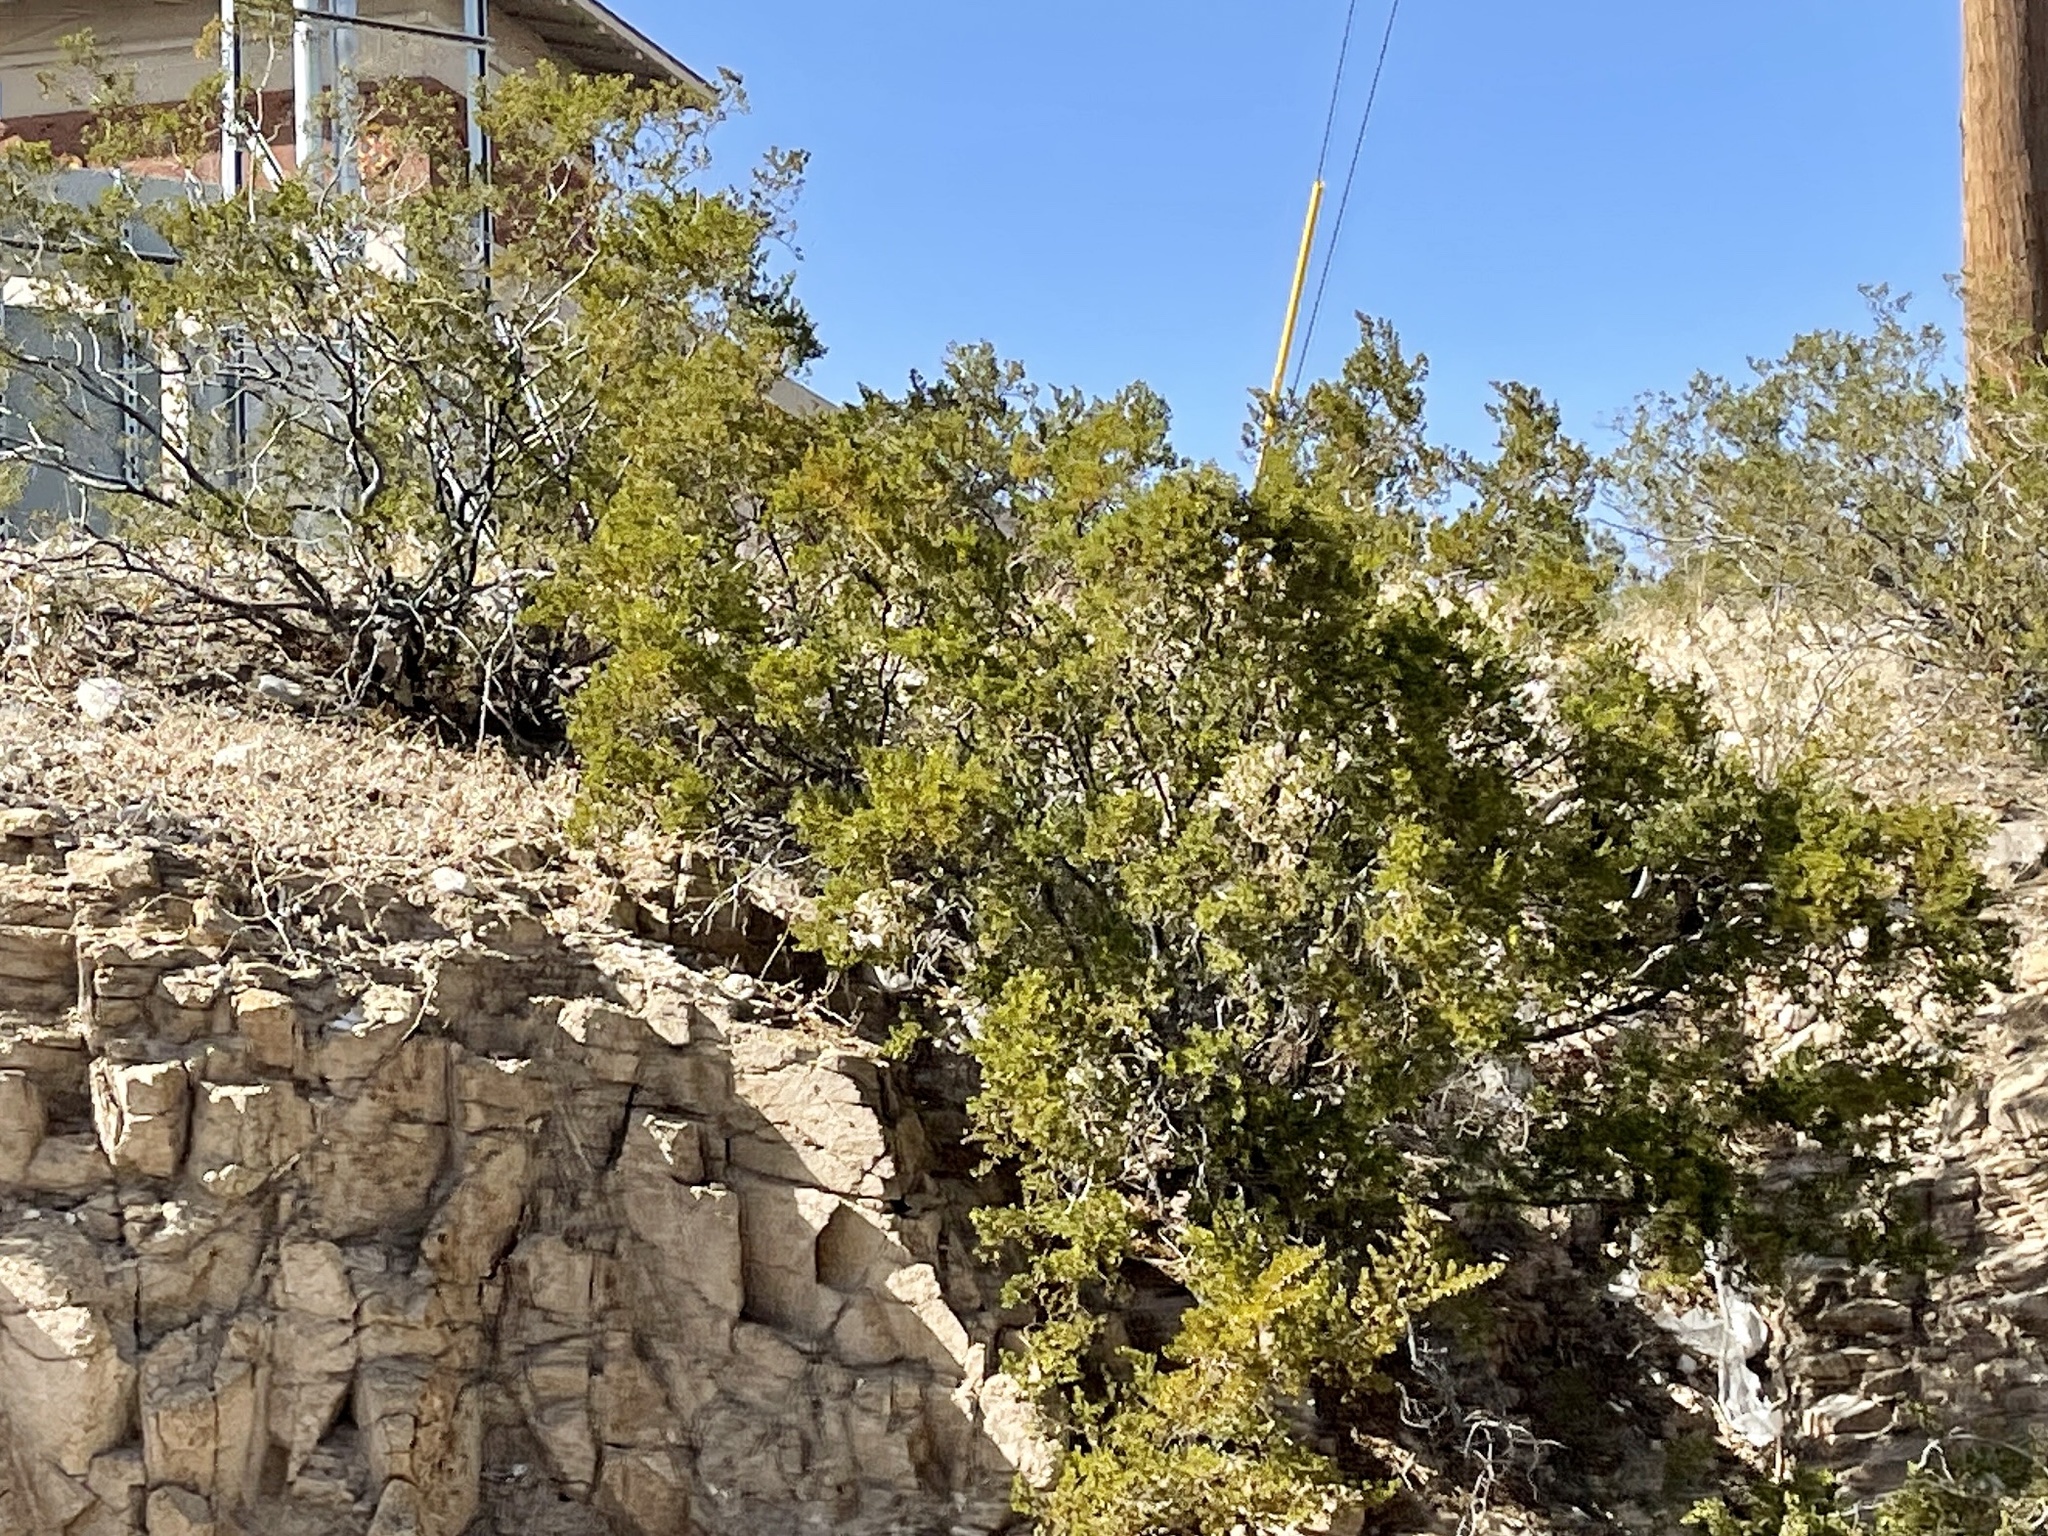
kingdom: Plantae
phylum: Tracheophyta
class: Magnoliopsida
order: Zygophyllales
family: Zygophyllaceae
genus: Larrea
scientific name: Larrea tridentata
